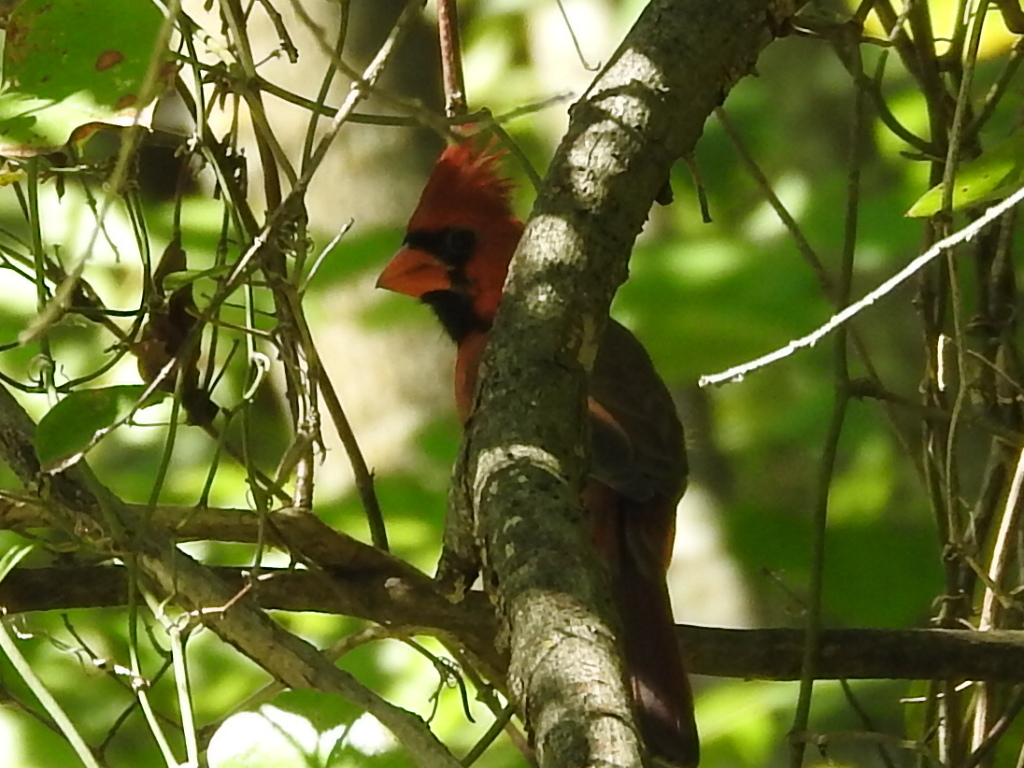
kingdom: Animalia
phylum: Chordata
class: Aves
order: Passeriformes
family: Cardinalidae
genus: Cardinalis
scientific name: Cardinalis cardinalis
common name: Northern cardinal
